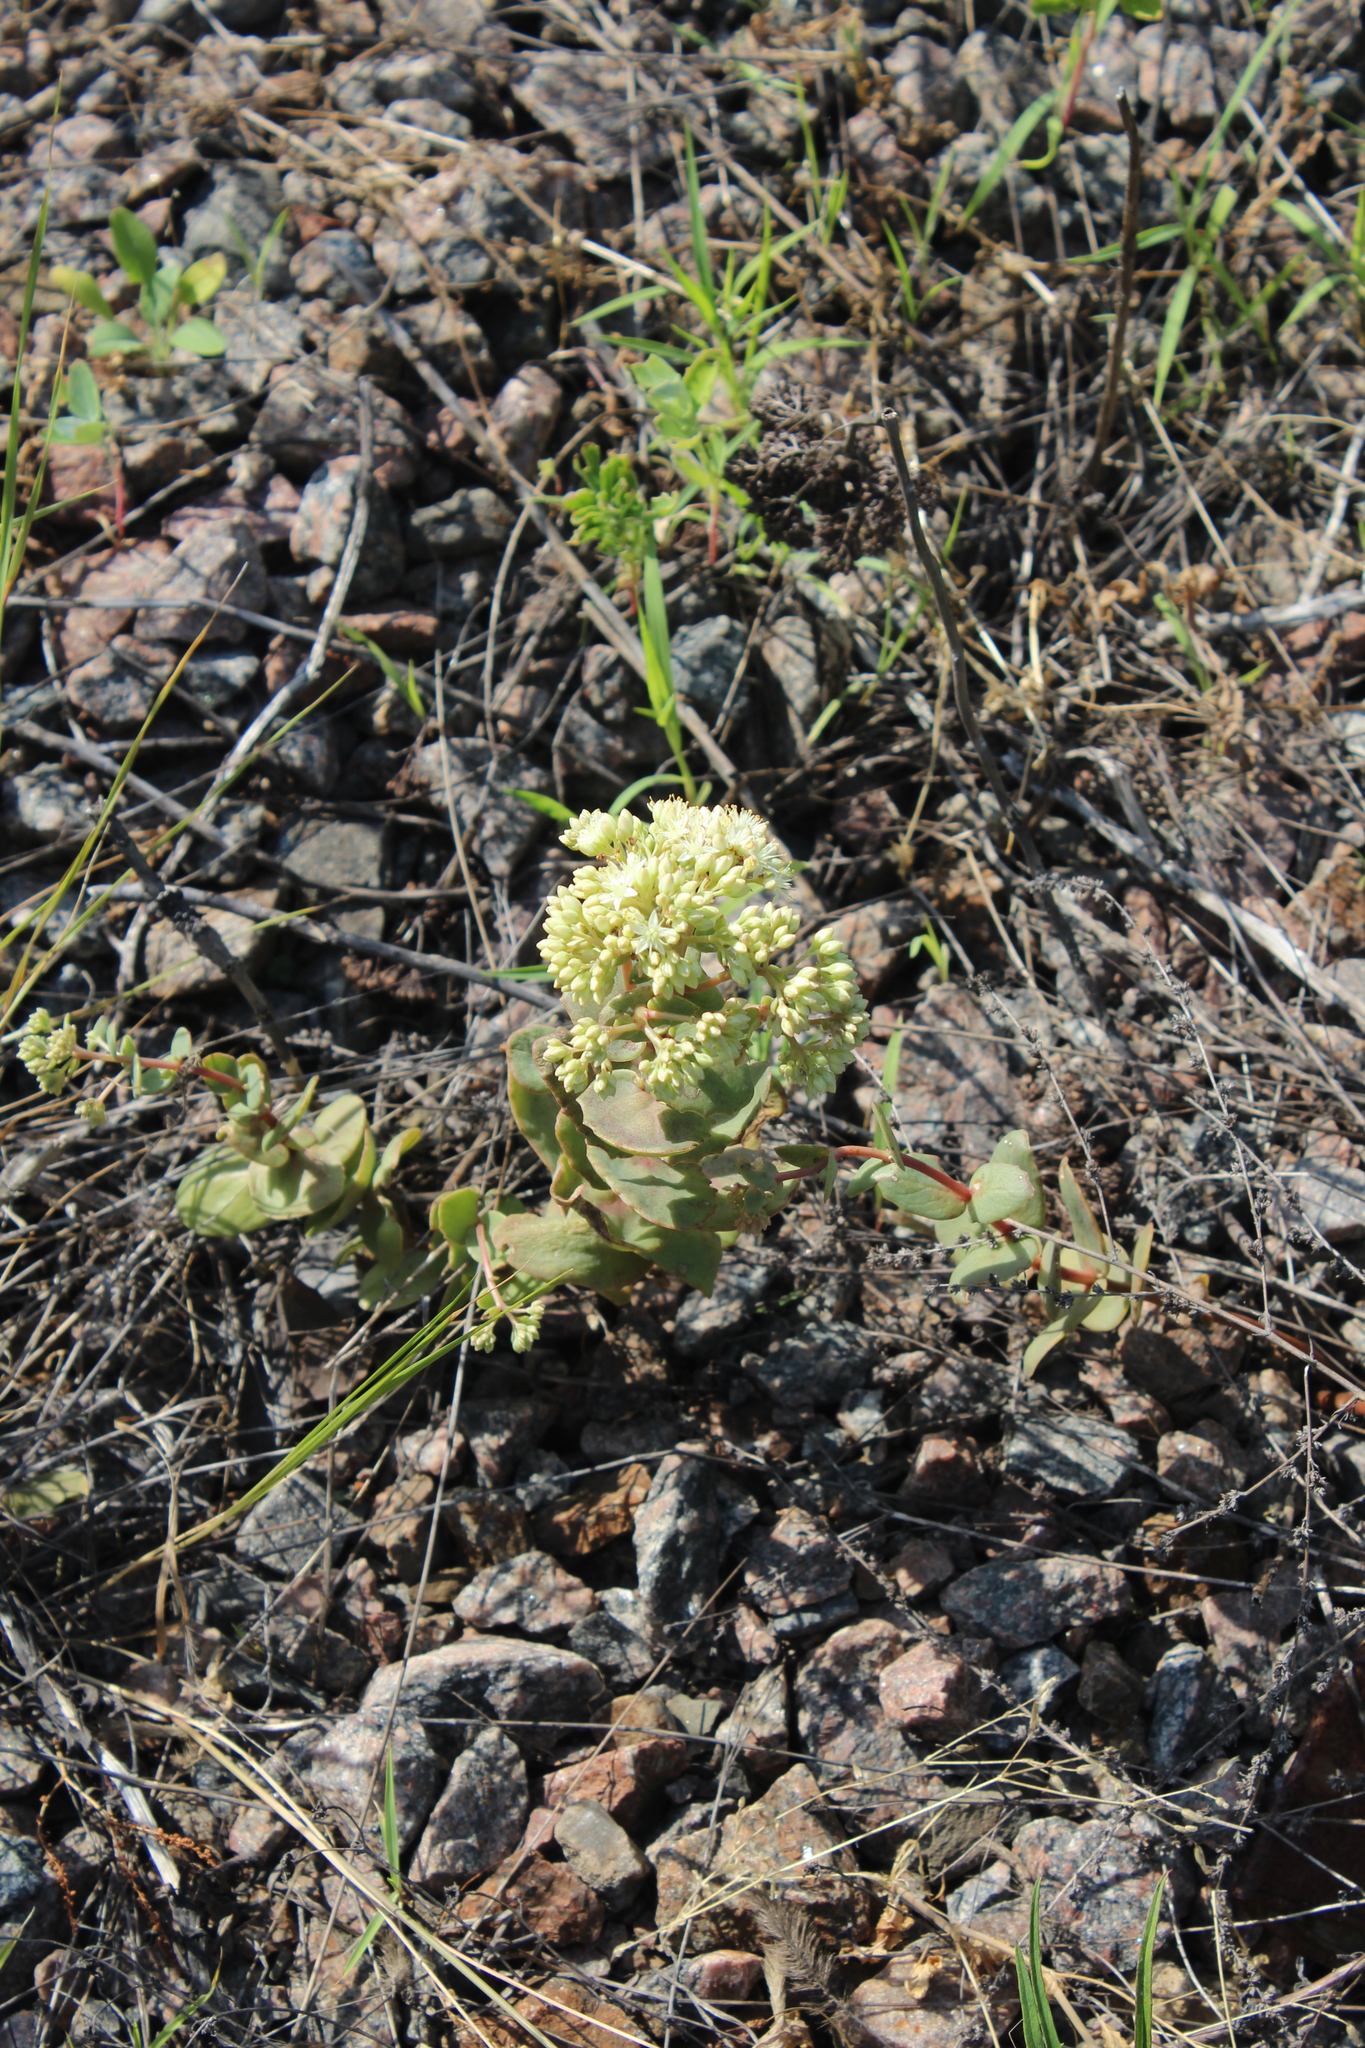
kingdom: Plantae
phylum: Tracheophyta
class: Magnoliopsida
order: Saxifragales
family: Crassulaceae
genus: Hylotelephium
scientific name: Hylotelephium maximum
